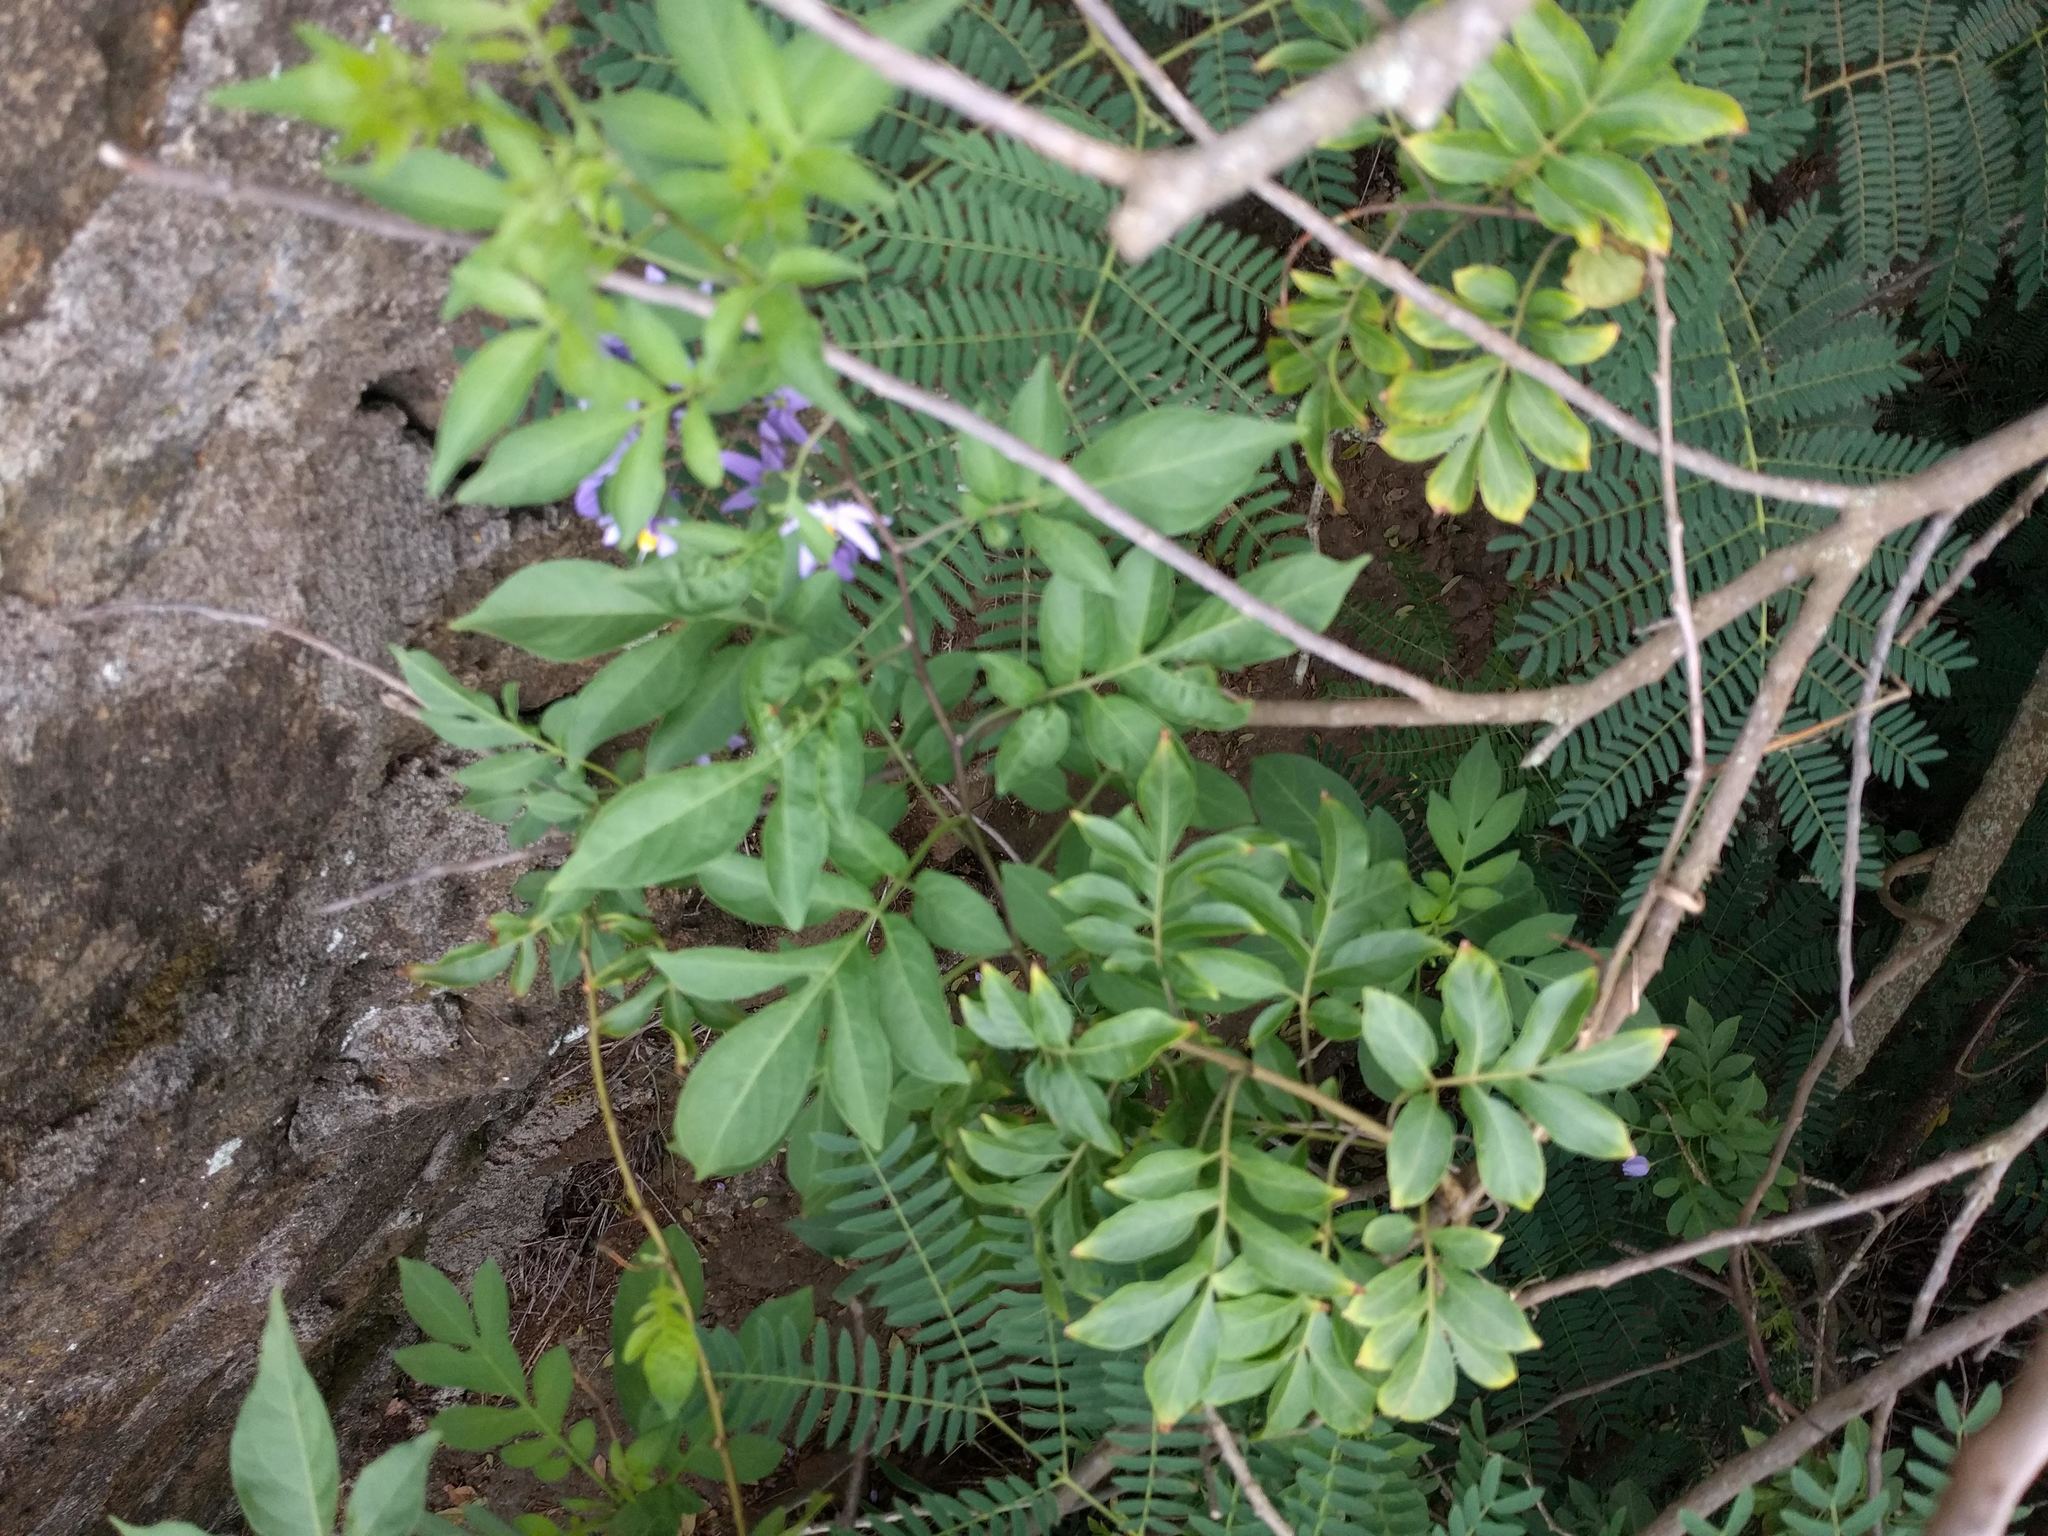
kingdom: Plantae
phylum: Tracheophyta
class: Magnoliopsida
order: Solanales
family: Solanaceae
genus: Solanum
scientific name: Solanum seaforthianum
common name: Brazilian nightshade
